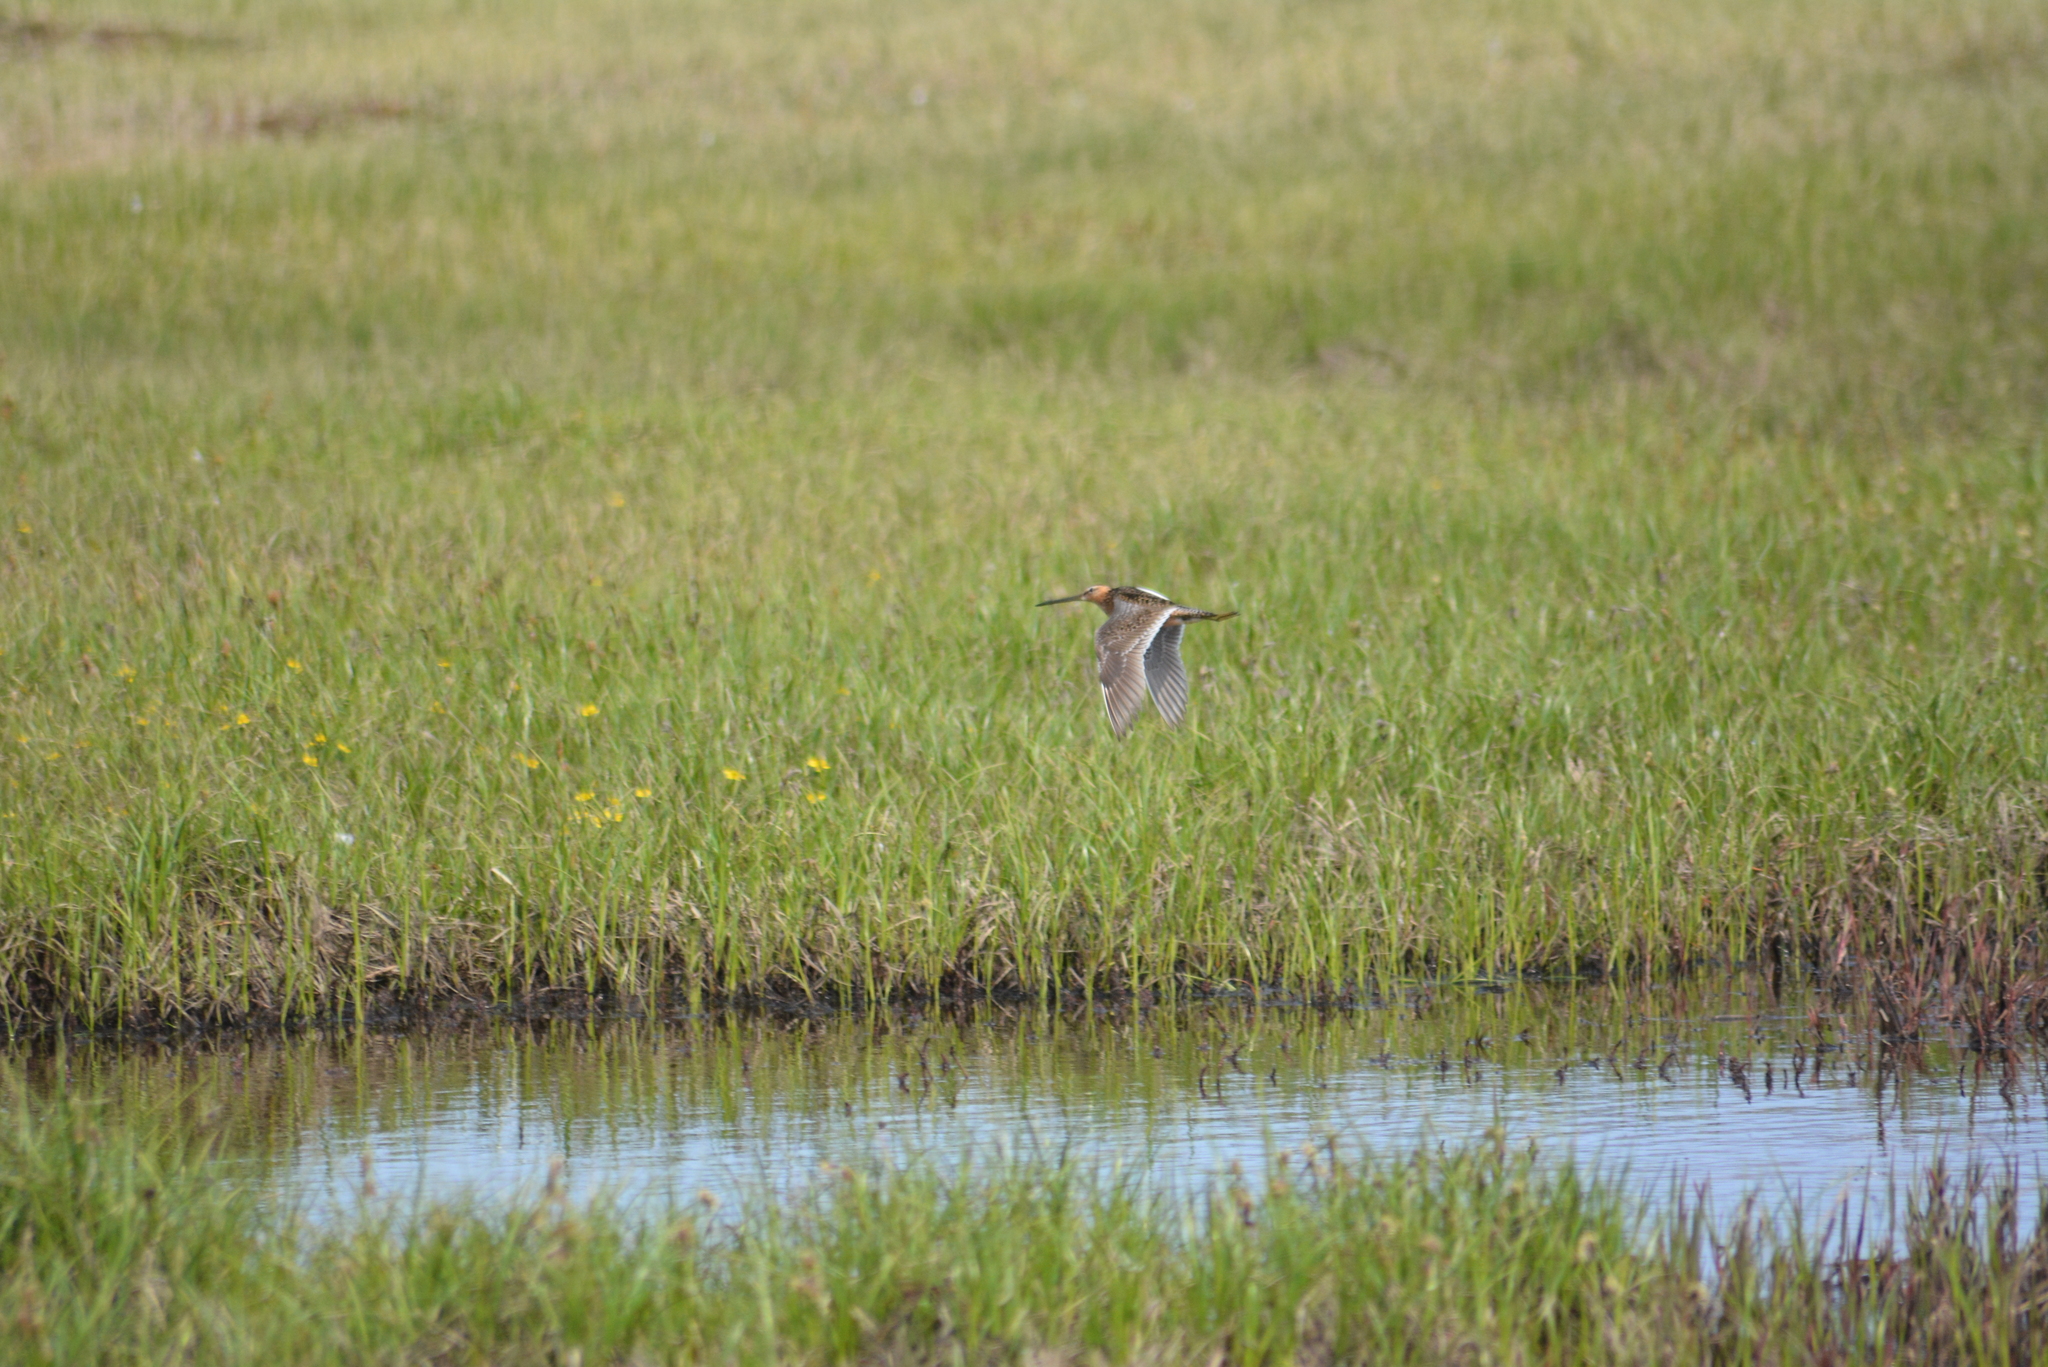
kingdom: Animalia
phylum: Chordata
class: Aves
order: Charadriiformes
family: Scolopacidae
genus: Limnodromus
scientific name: Limnodromus scolopaceus
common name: Long-billed dowitcher
